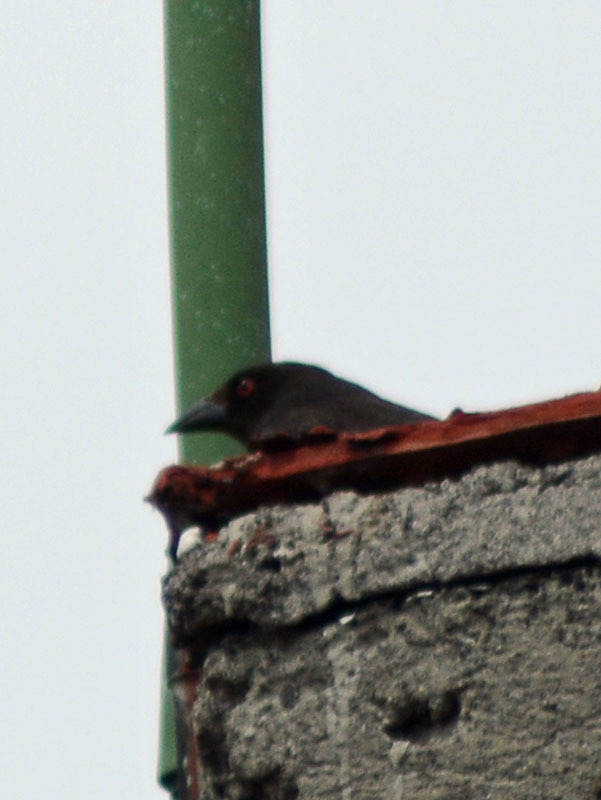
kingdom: Animalia
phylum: Chordata
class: Aves
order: Passeriformes
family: Icteridae
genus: Molothrus
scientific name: Molothrus aeneus
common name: Bronzed cowbird
